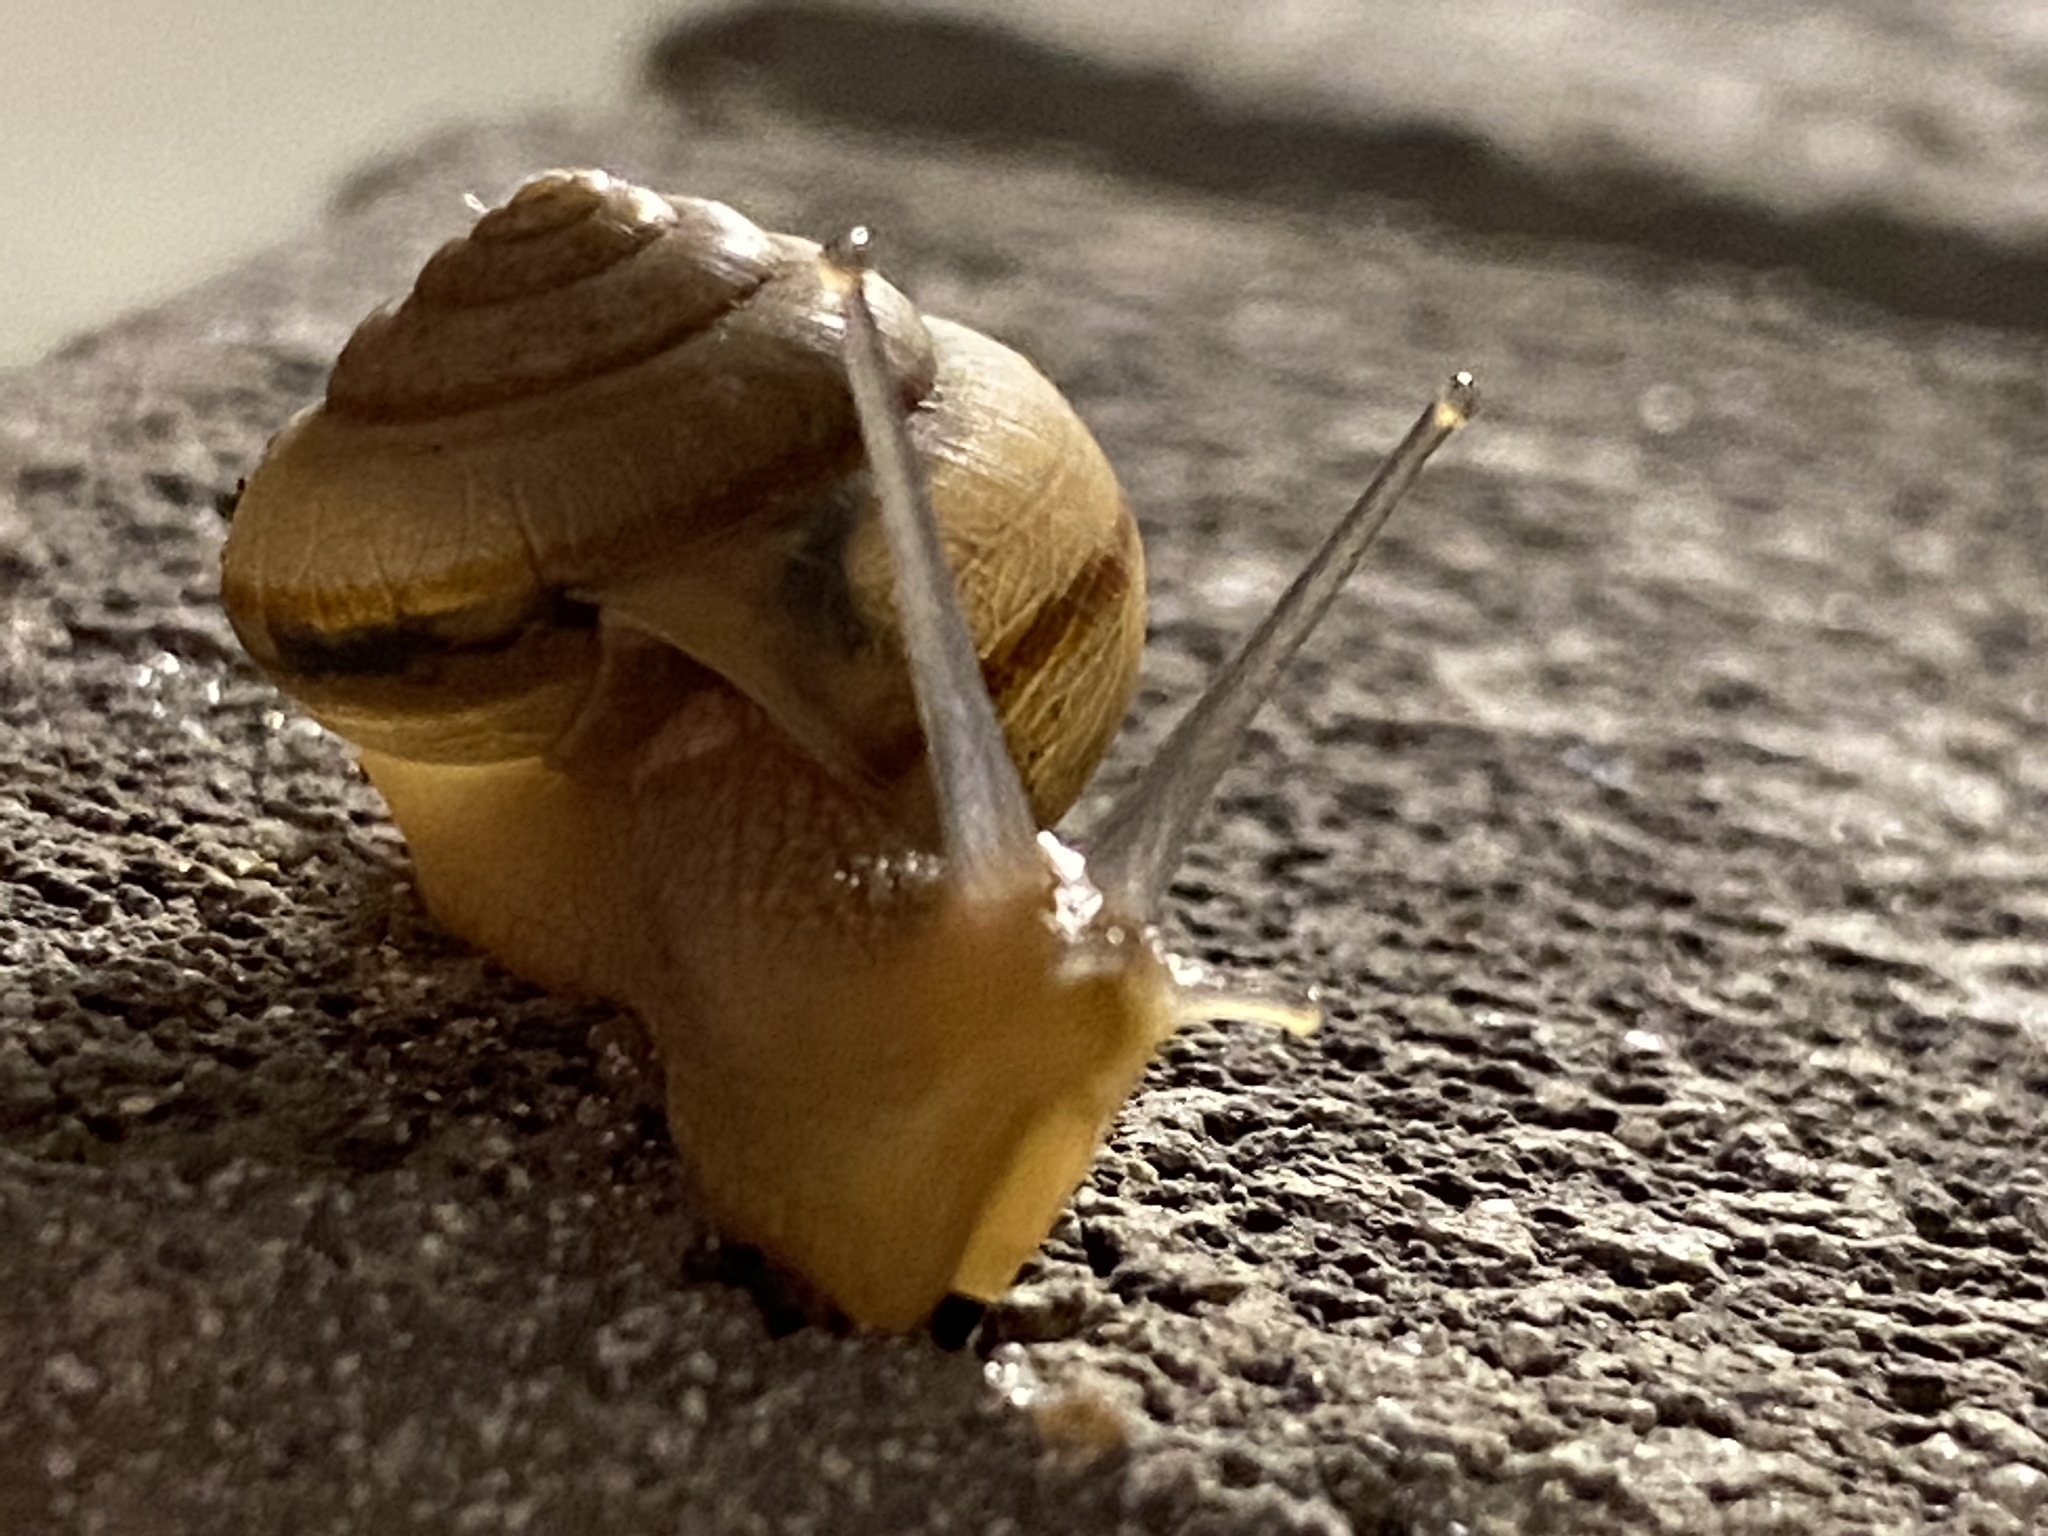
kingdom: Animalia
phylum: Mollusca
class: Gastropoda
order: Stylommatophora
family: Camaenidae
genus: Bradybaena
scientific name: Bradybaena similaris
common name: Asian trampsnail
